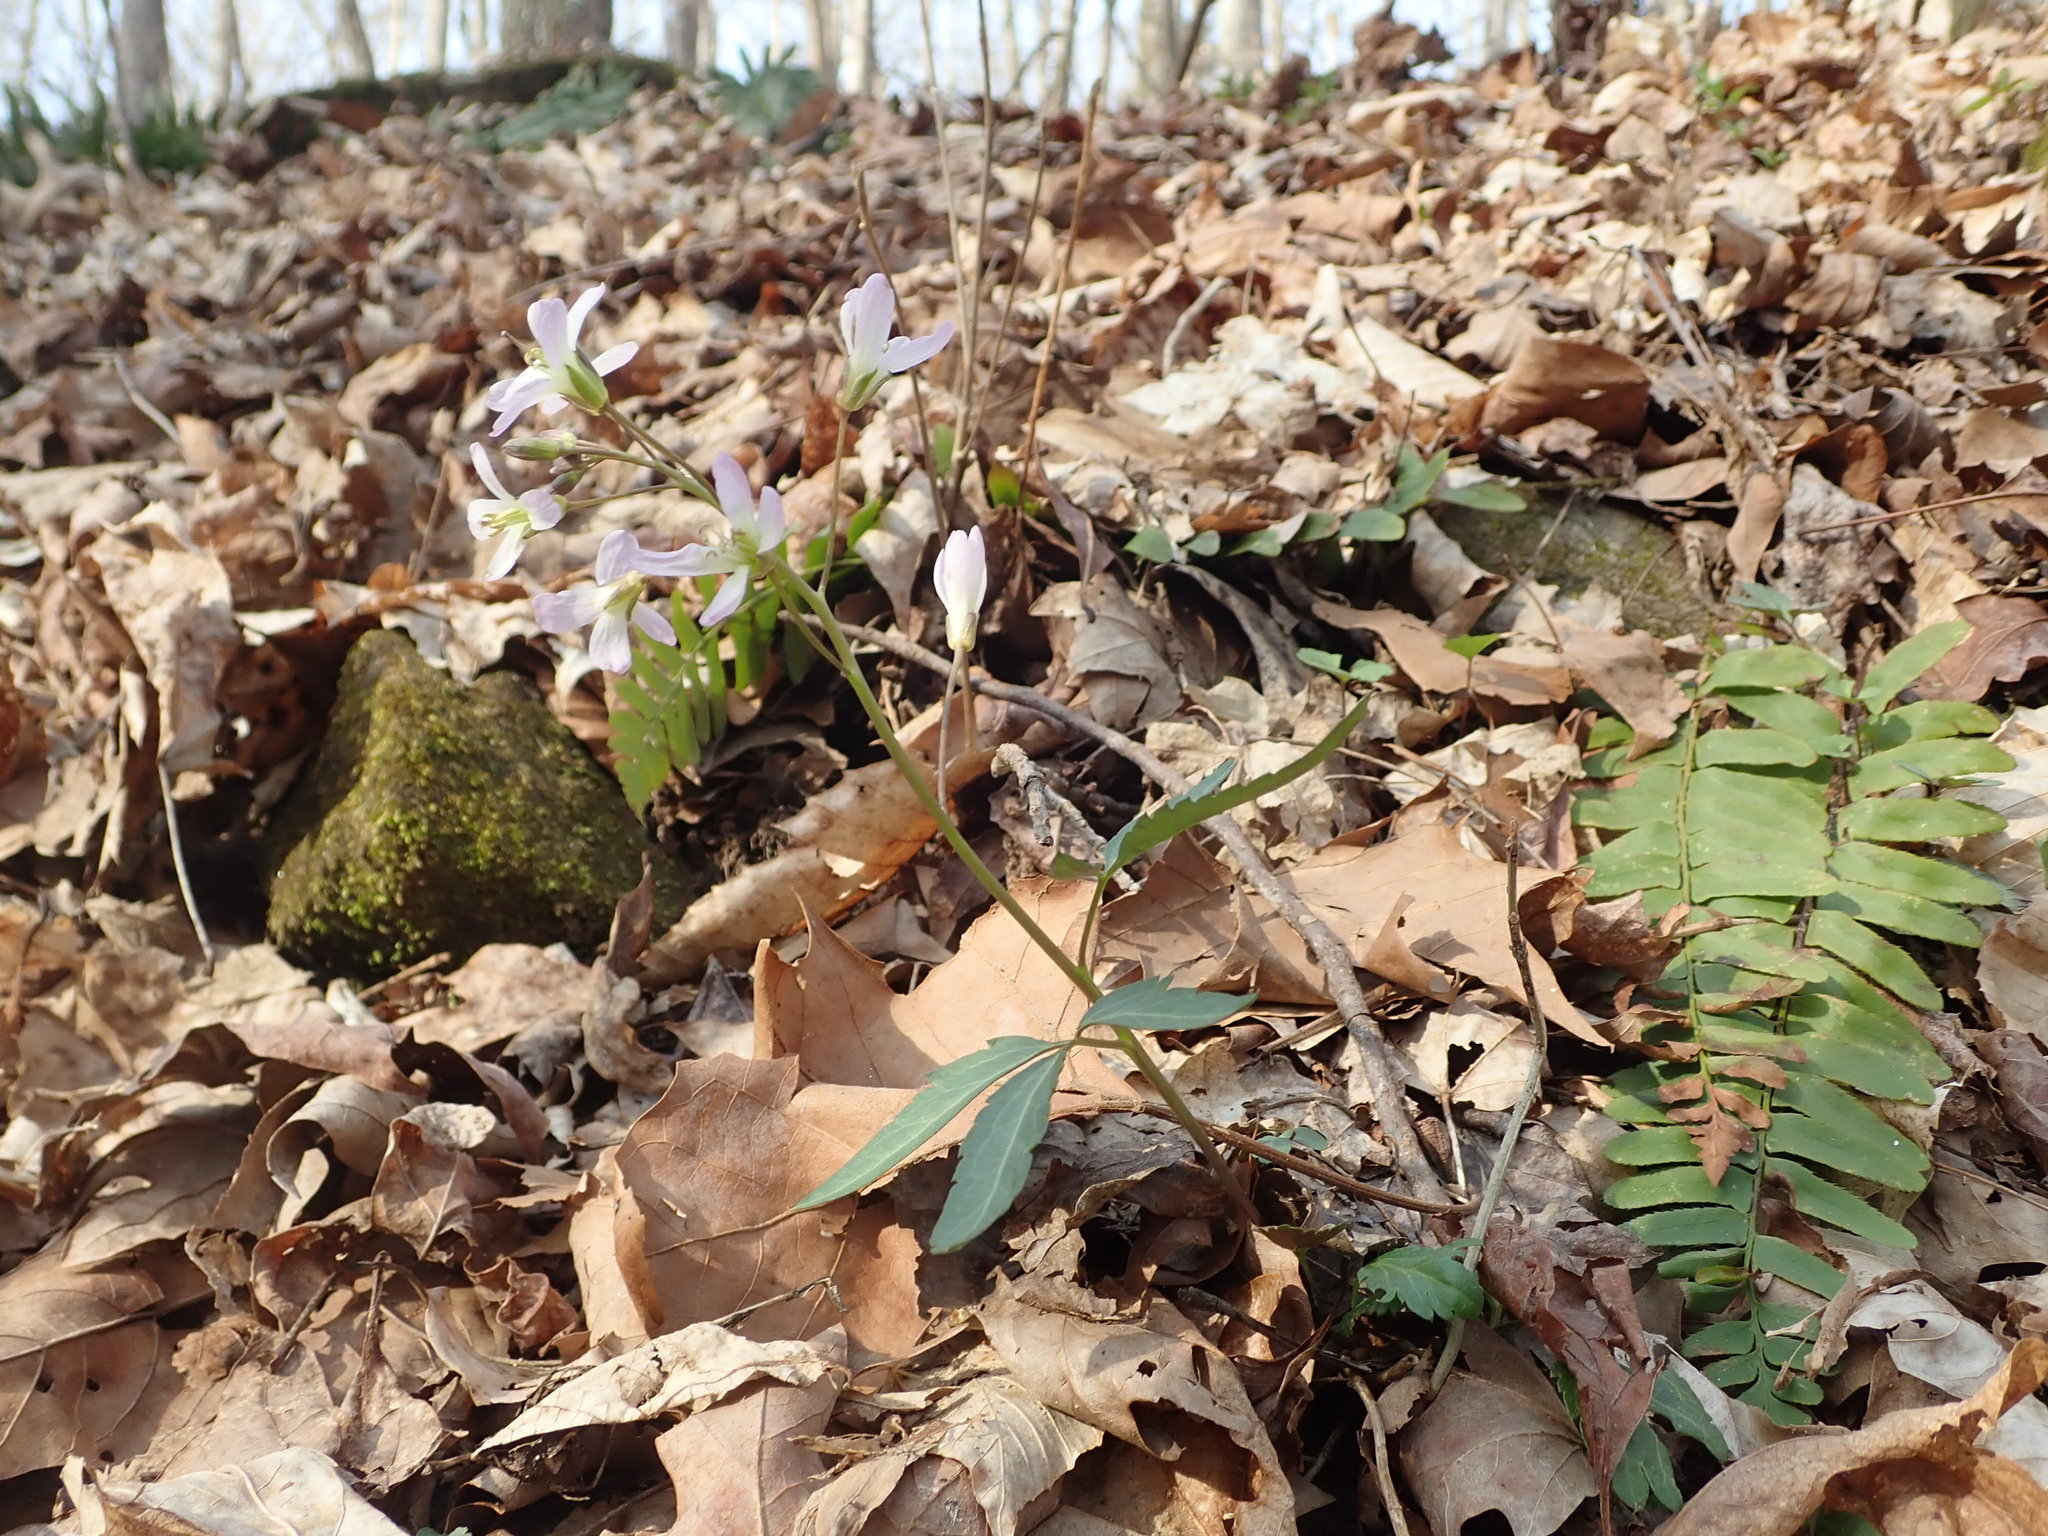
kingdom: Plantae
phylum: Tracheophyta
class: Magnoliopsida
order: Brassicales
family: Brassicaceae
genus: Cardamine
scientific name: Cardamine concatenata
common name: Cut-leaf toothcup
